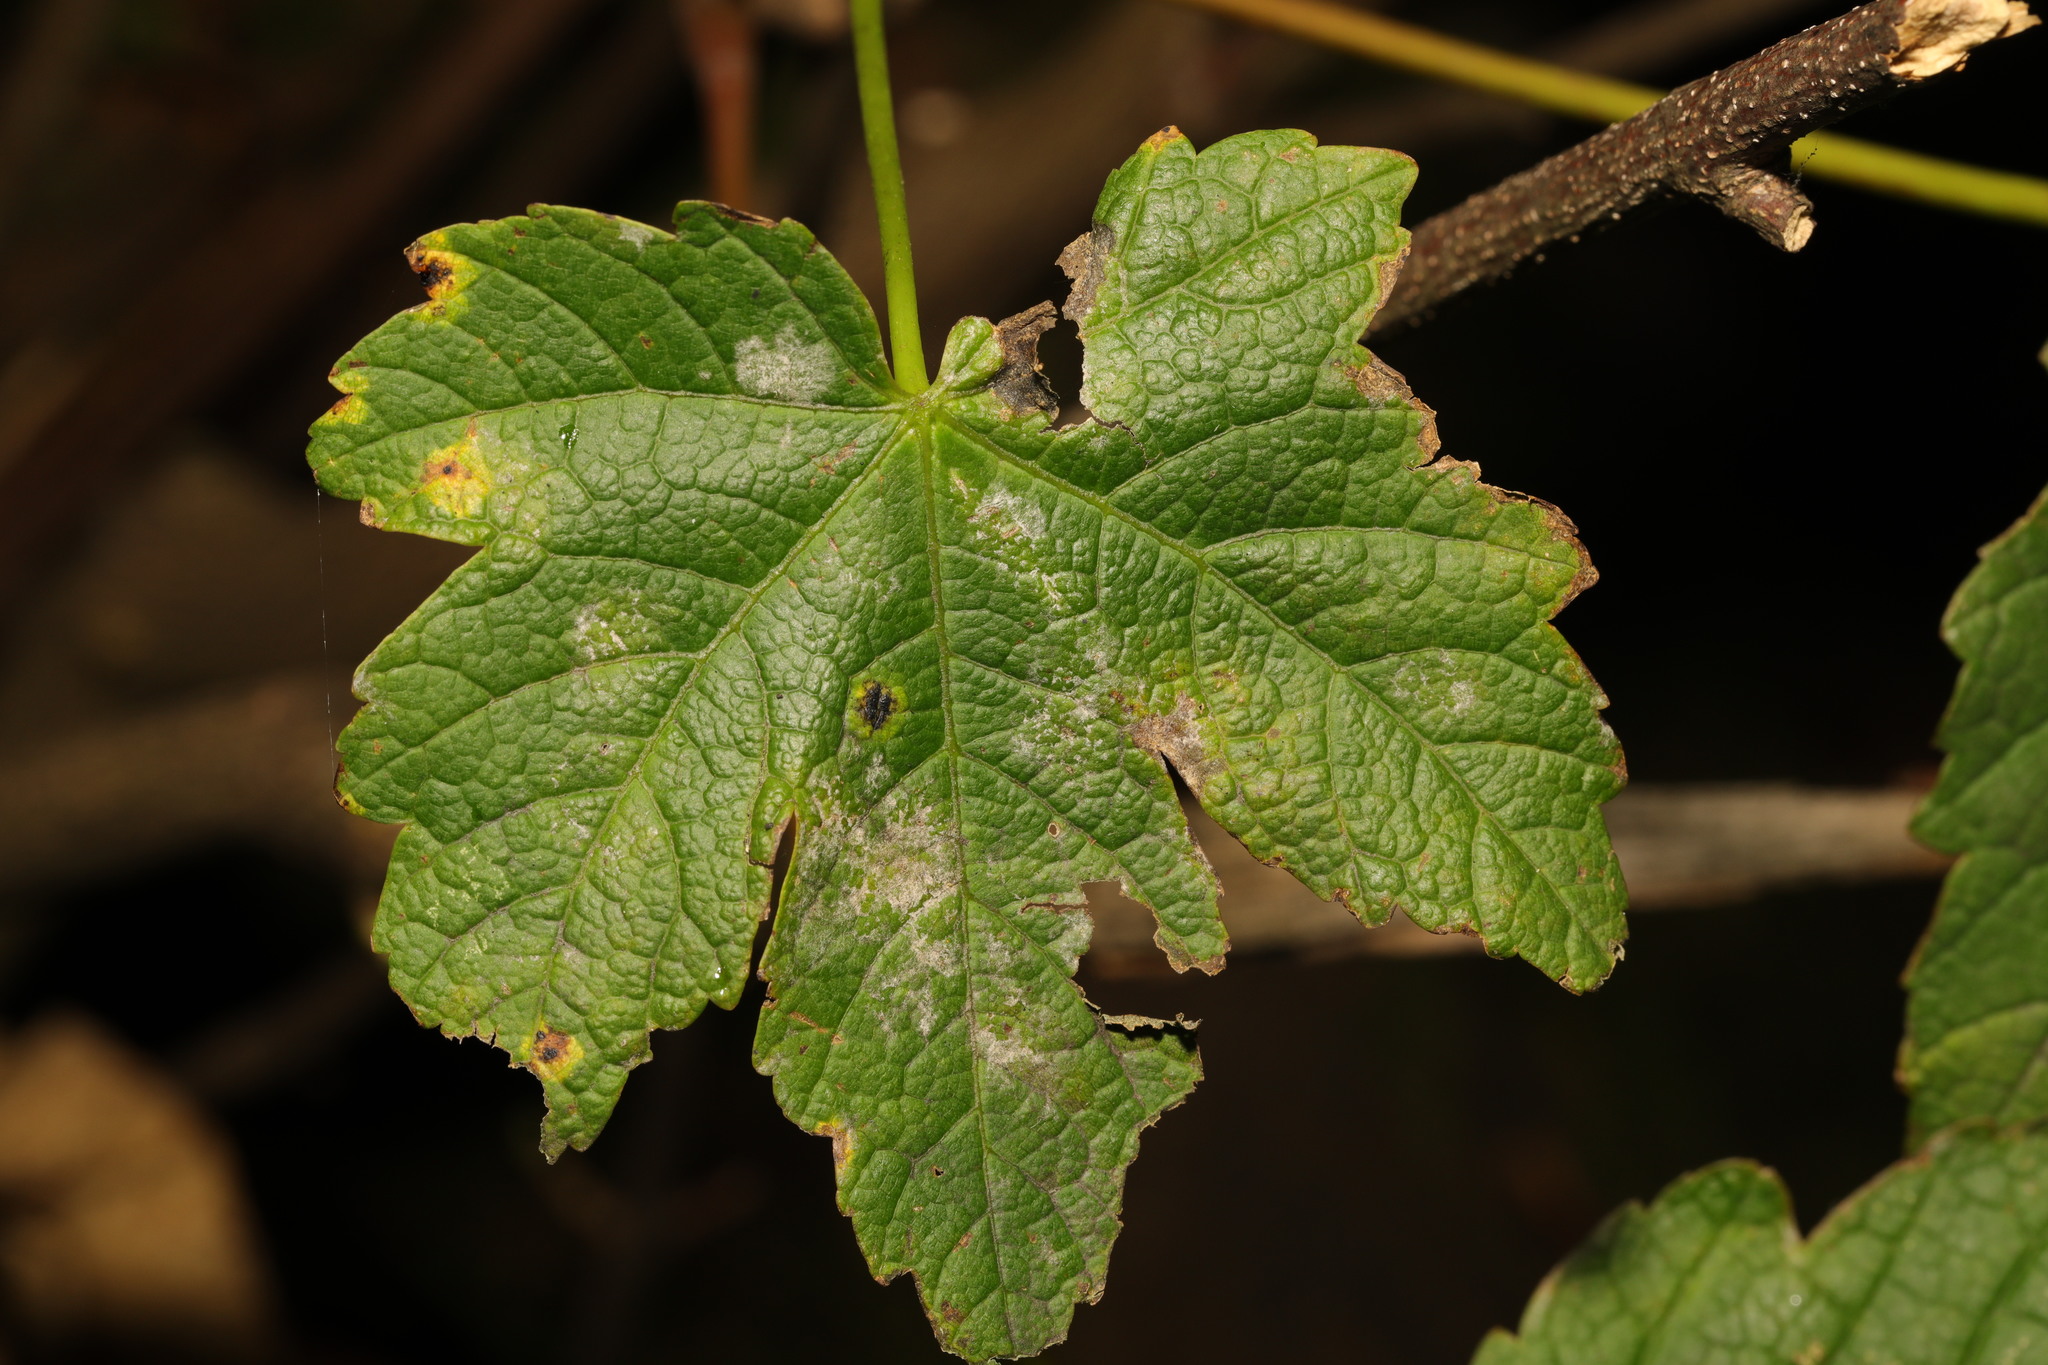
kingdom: Fungi
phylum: Ascomycota
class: Leotiomycetes
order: Helotiales
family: Erysiphaceae
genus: Sawadaea
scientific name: Sawadaea bicornis
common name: Maple mildew
